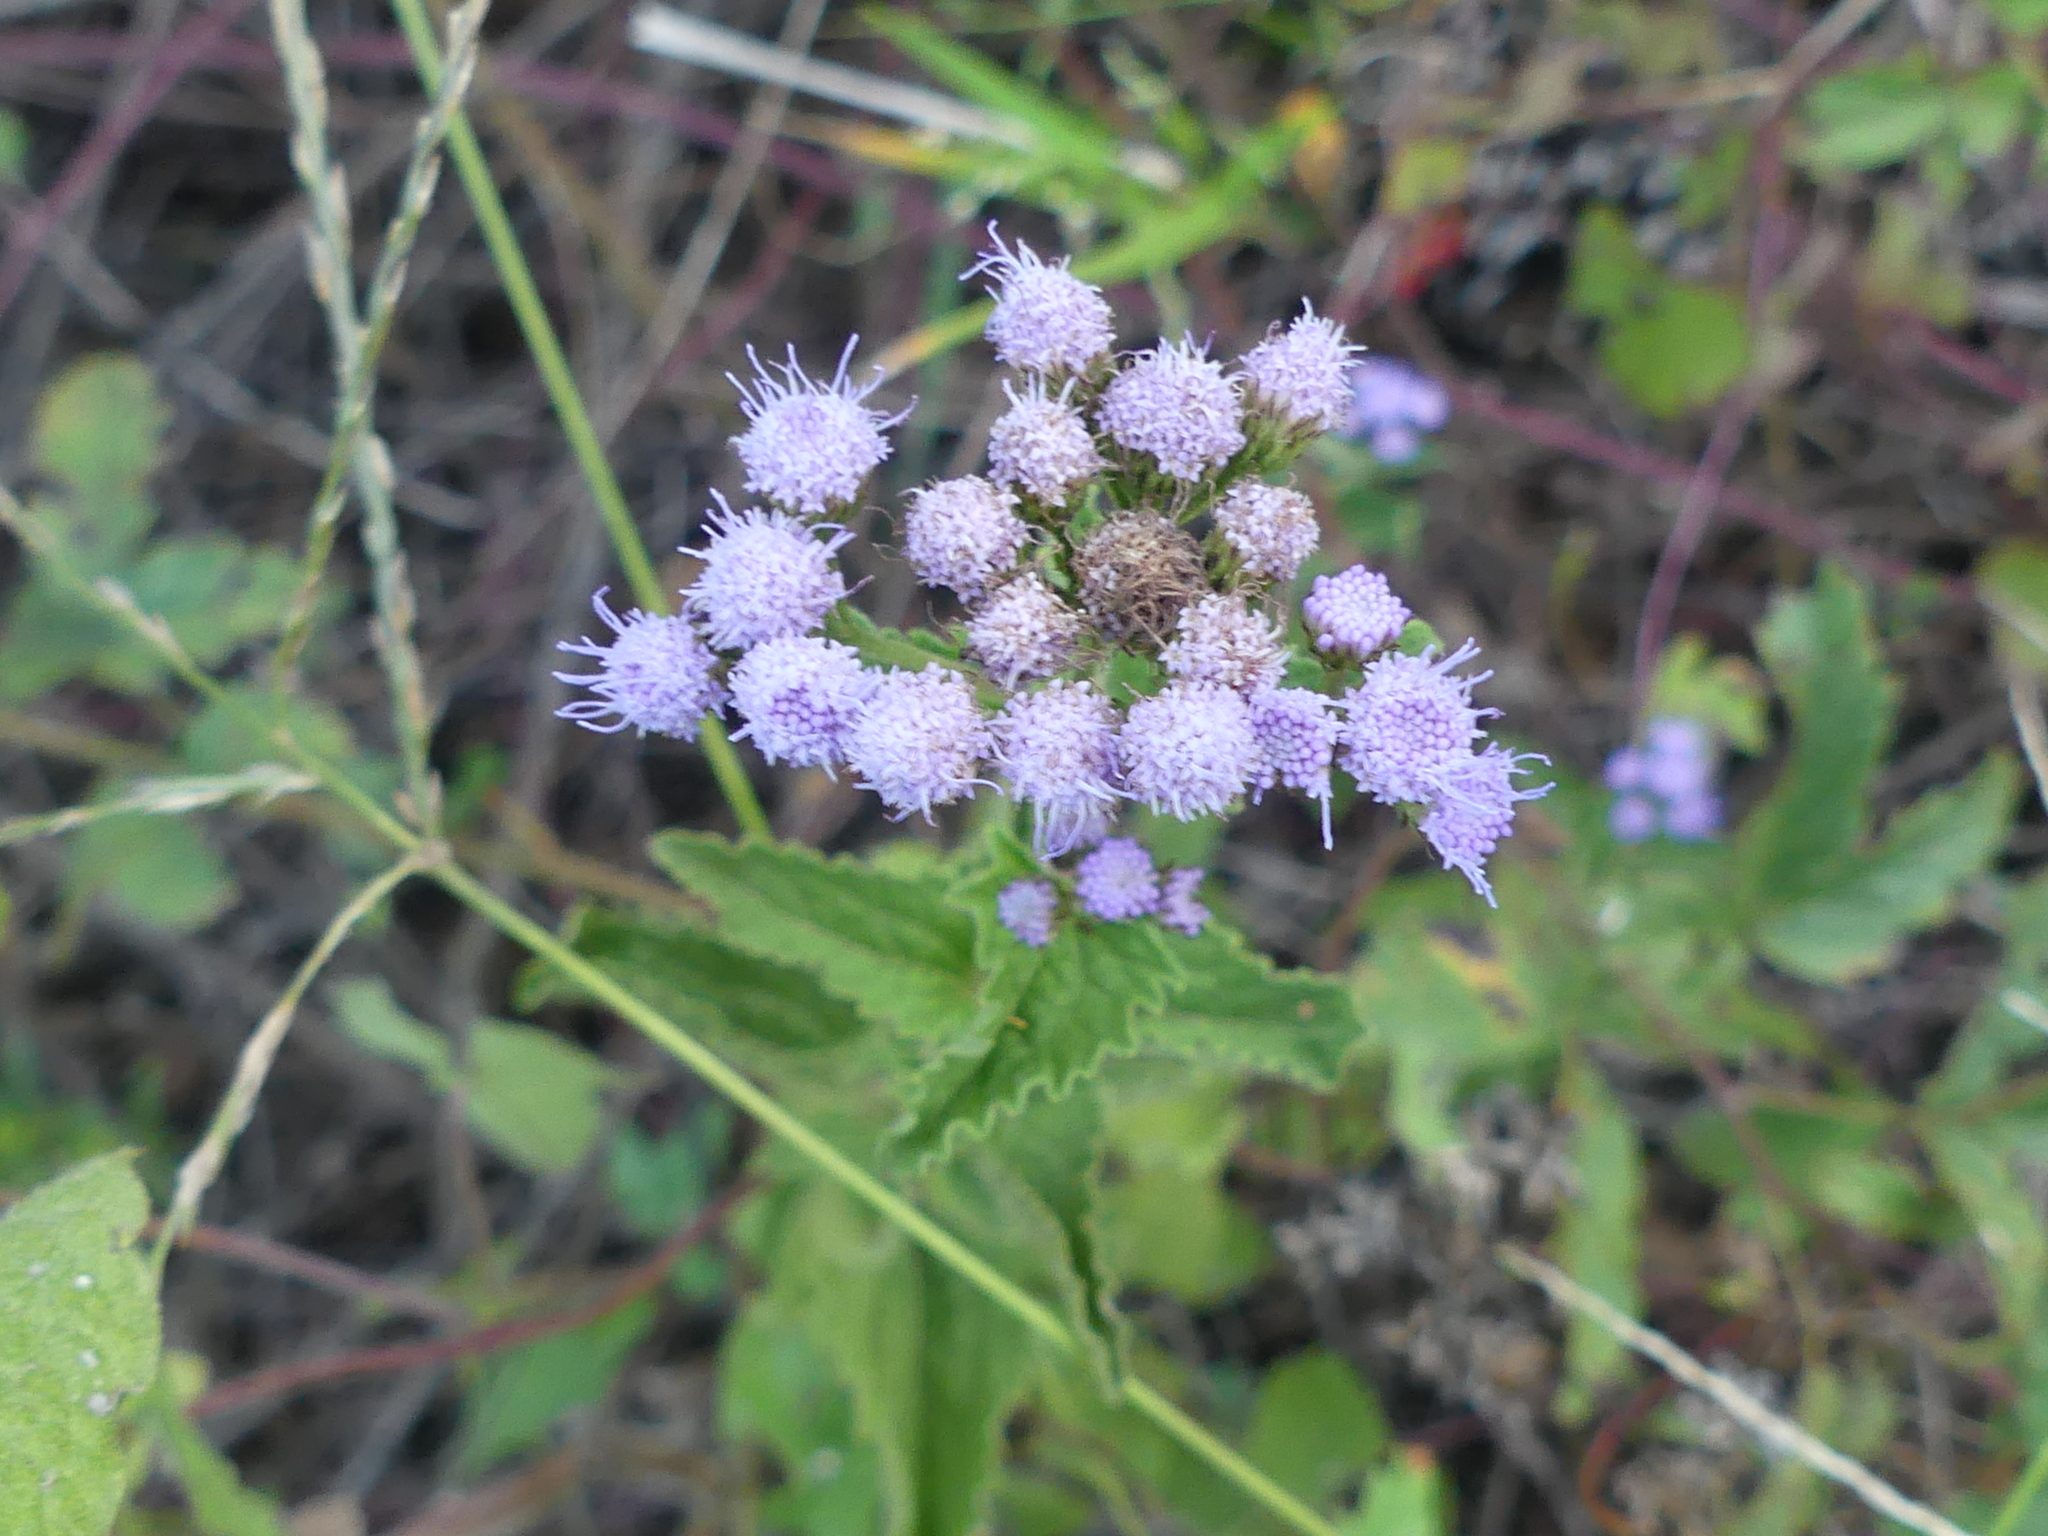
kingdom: Plantae
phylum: Tracheophyta
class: Magnoliopsida
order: Asterales
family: Asteraceae
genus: Conoclinium
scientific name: Conoclinium coelestinum
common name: Blue mistflower
